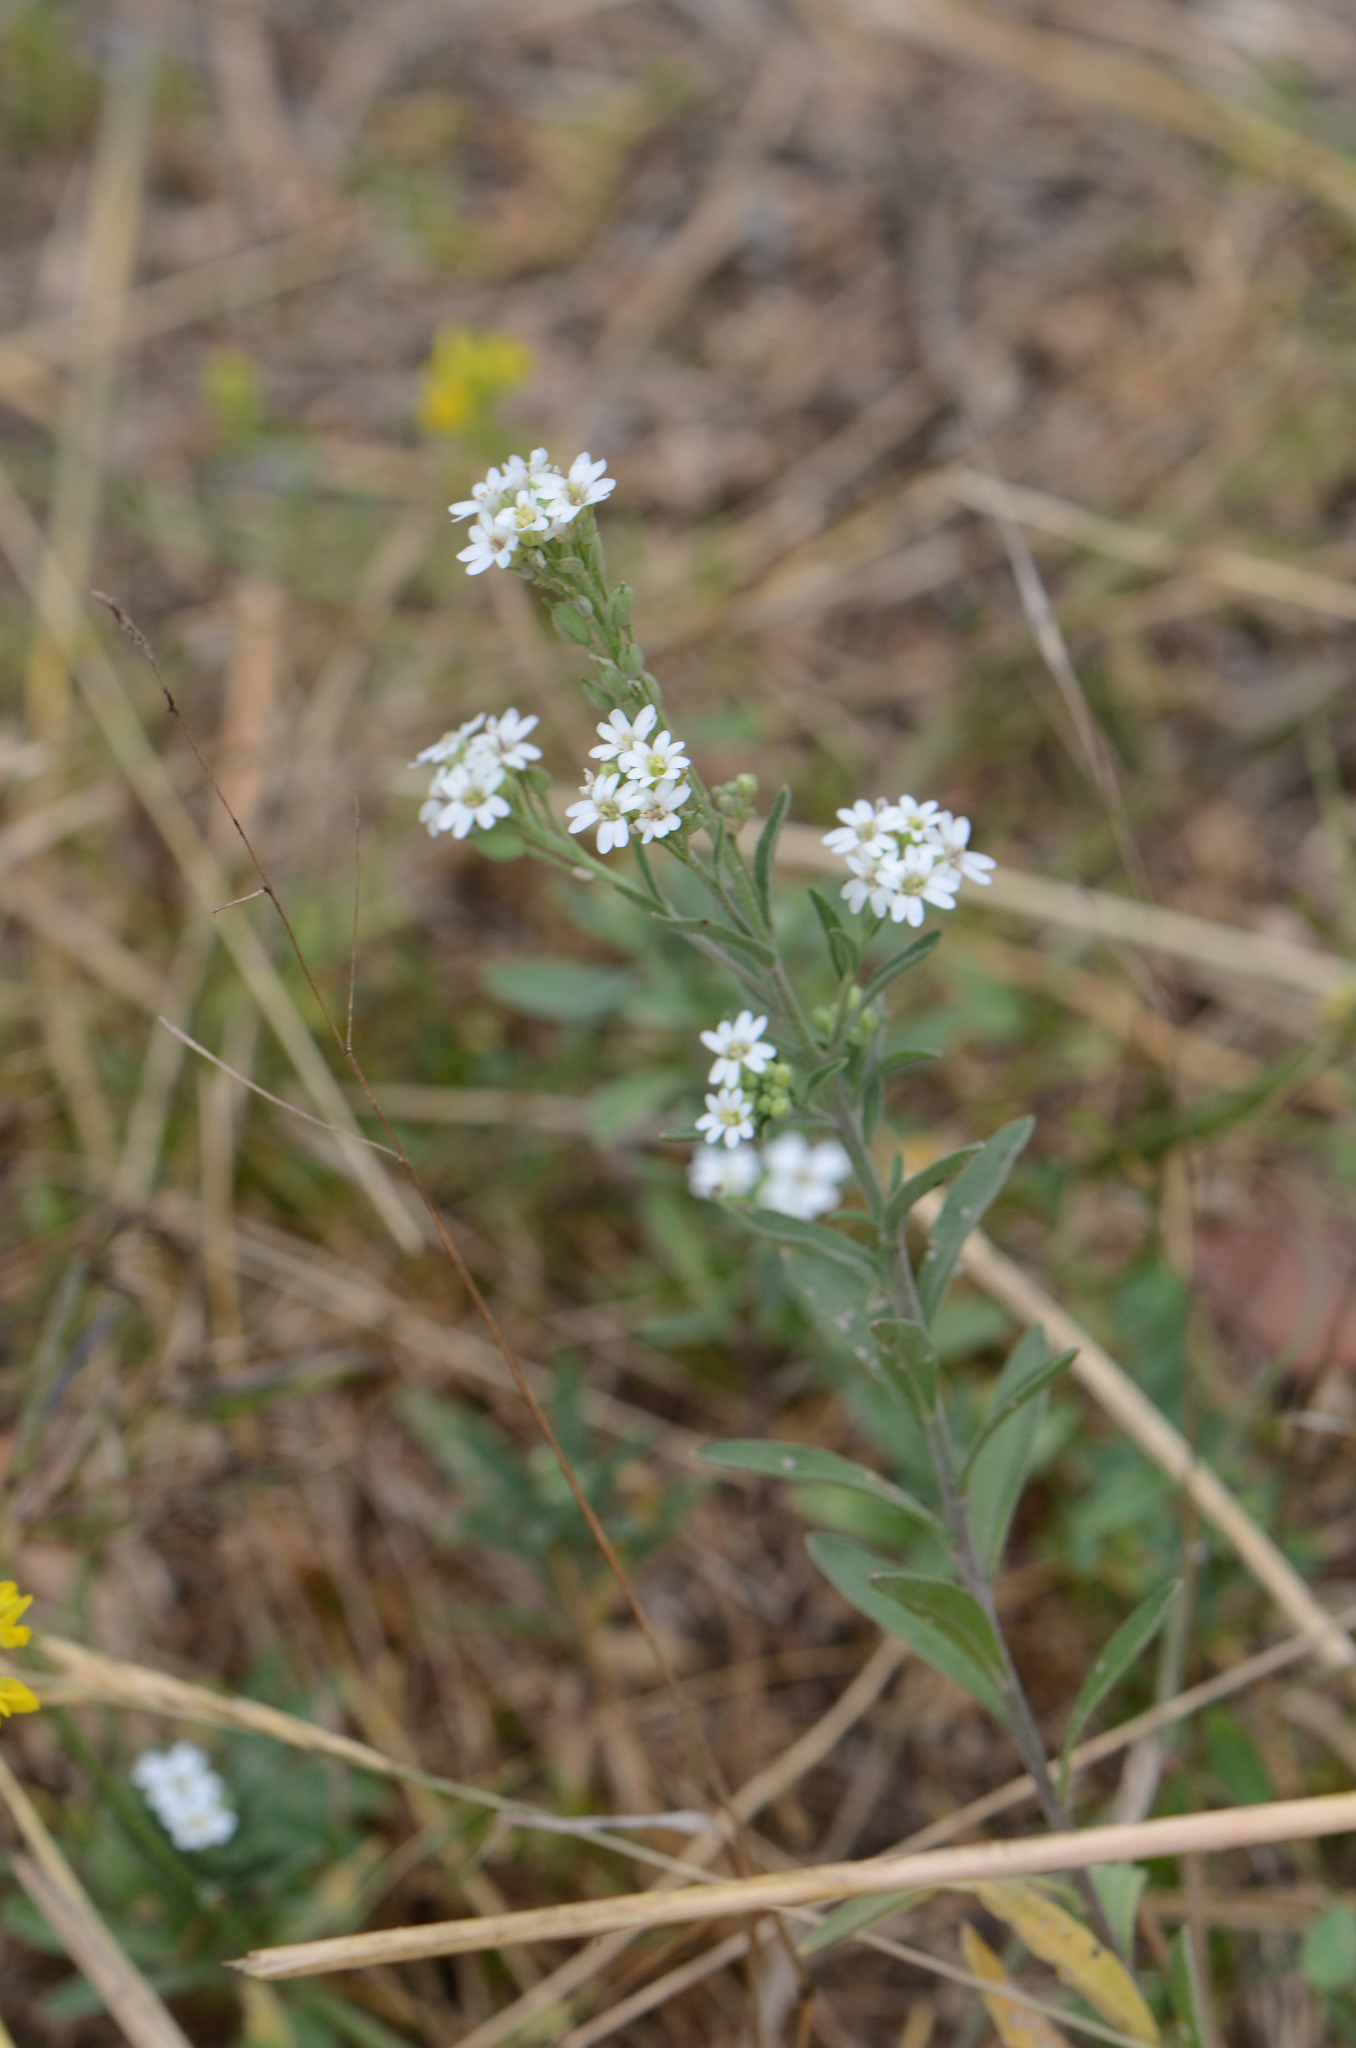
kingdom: Plantae
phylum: Tracheophyta
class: Magnoliopsida
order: Brassicales
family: Brassicaceae
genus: Berteroa
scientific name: Berteroa incana
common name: Hoary alison
